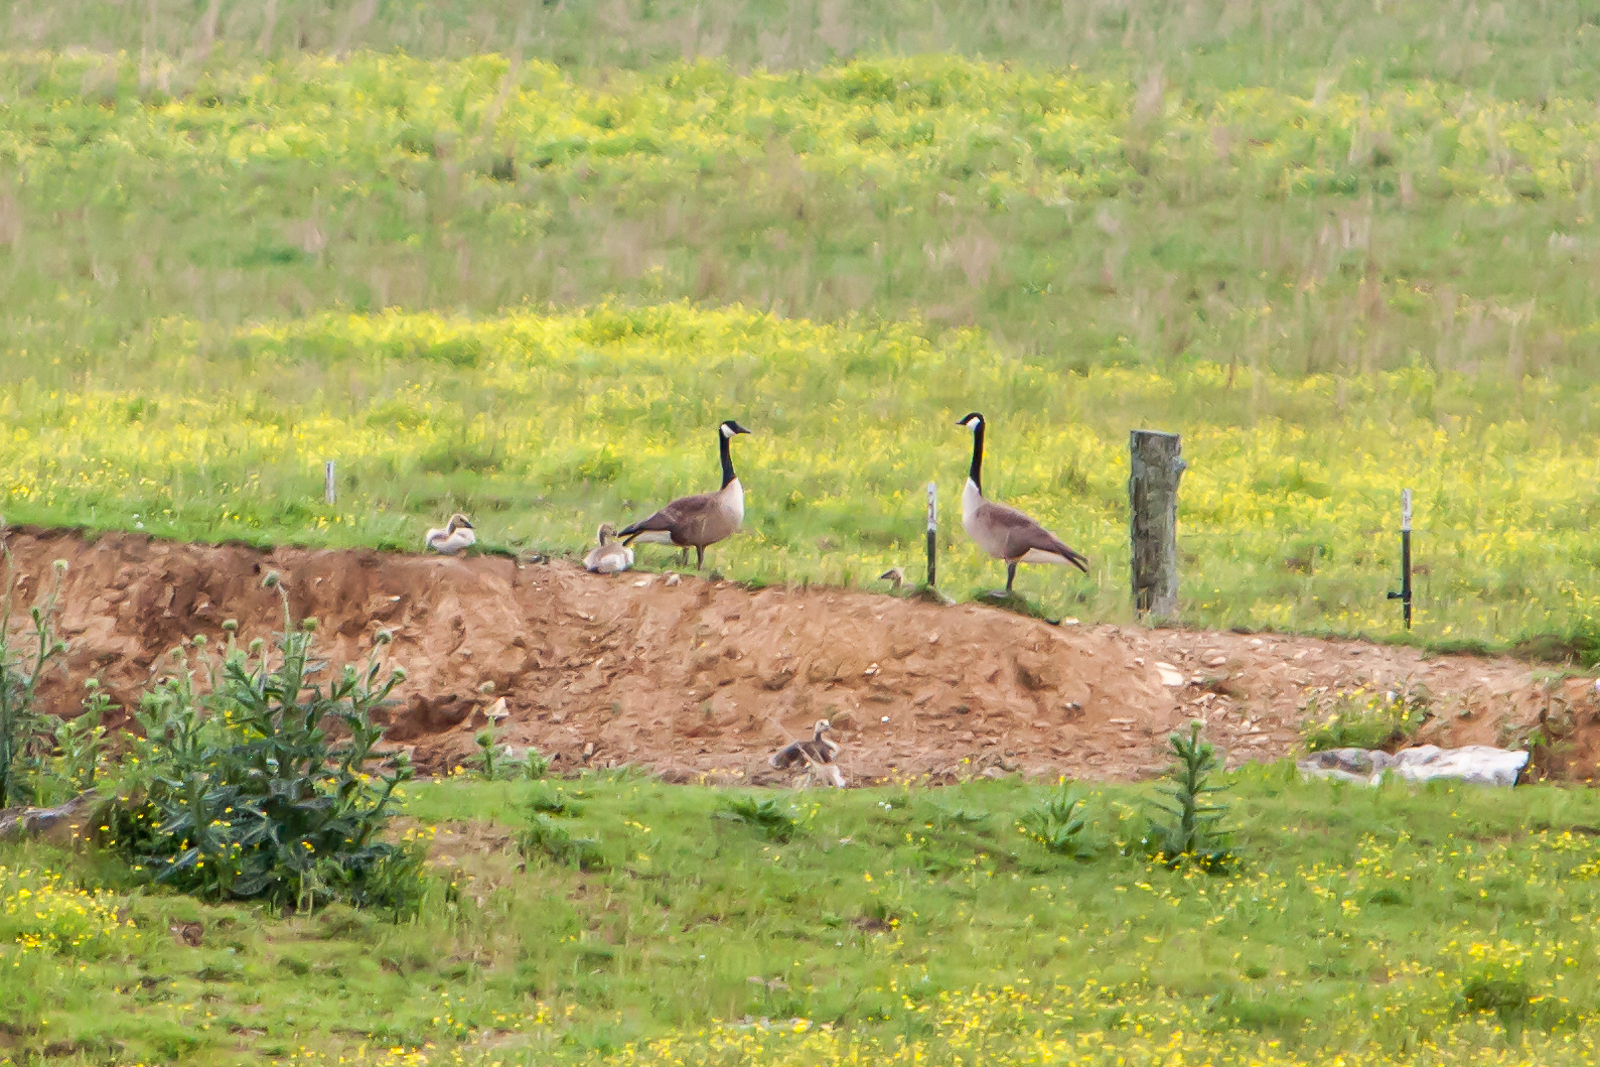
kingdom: Animalia
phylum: Chordata
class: Aves
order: Anseriformes
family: Anatidae
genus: Branta
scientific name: Branta canadensis
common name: Canada goose
